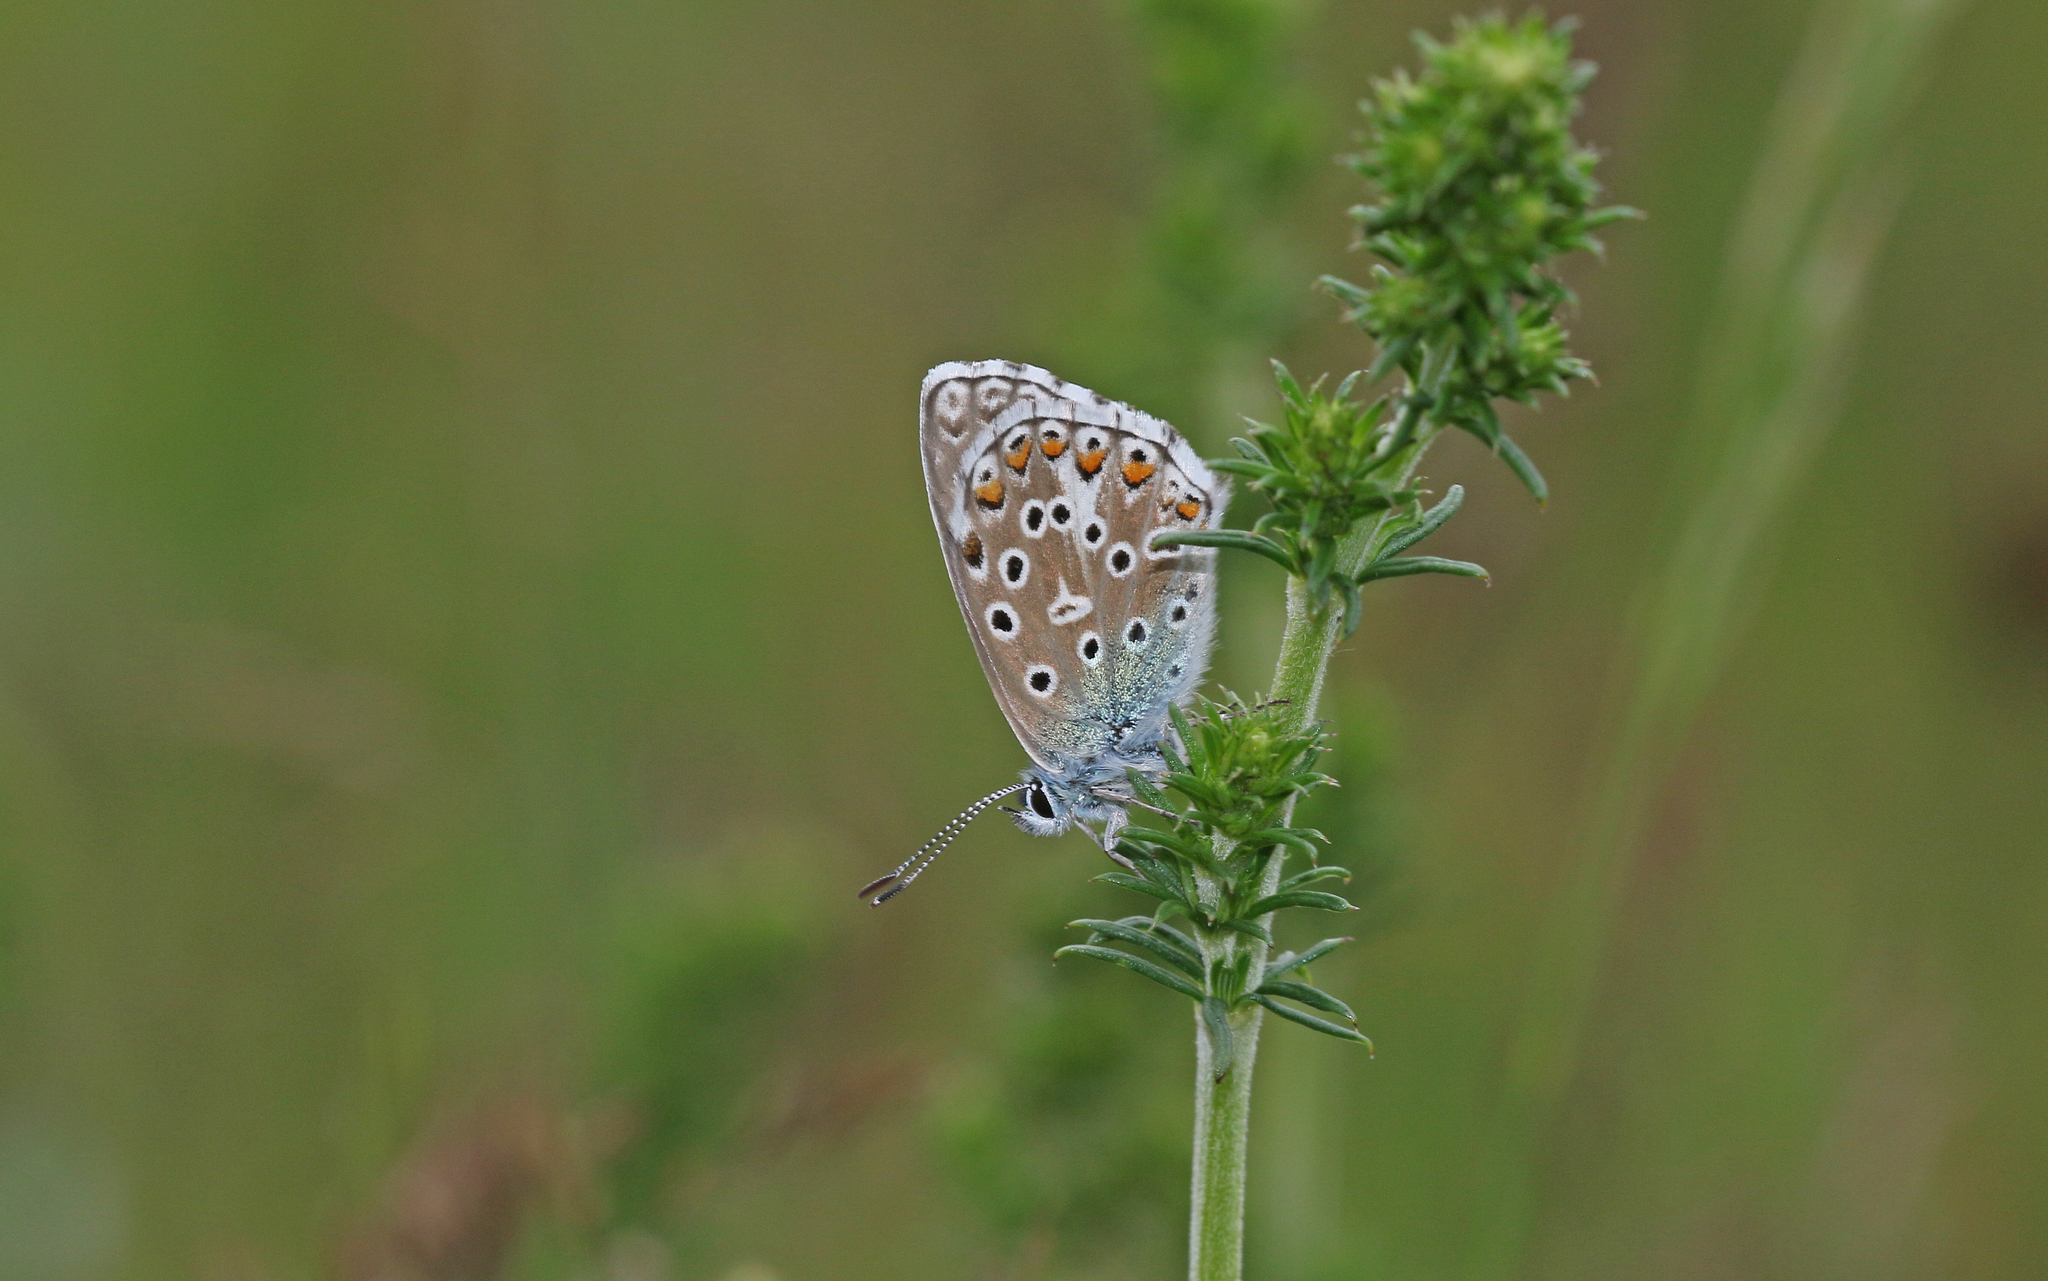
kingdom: Animalia
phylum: Arthropoda
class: Insecta
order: Lepidoptera
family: Lycaenidae
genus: Lysandra
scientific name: Lysandra bellargus
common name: Adonis blue
